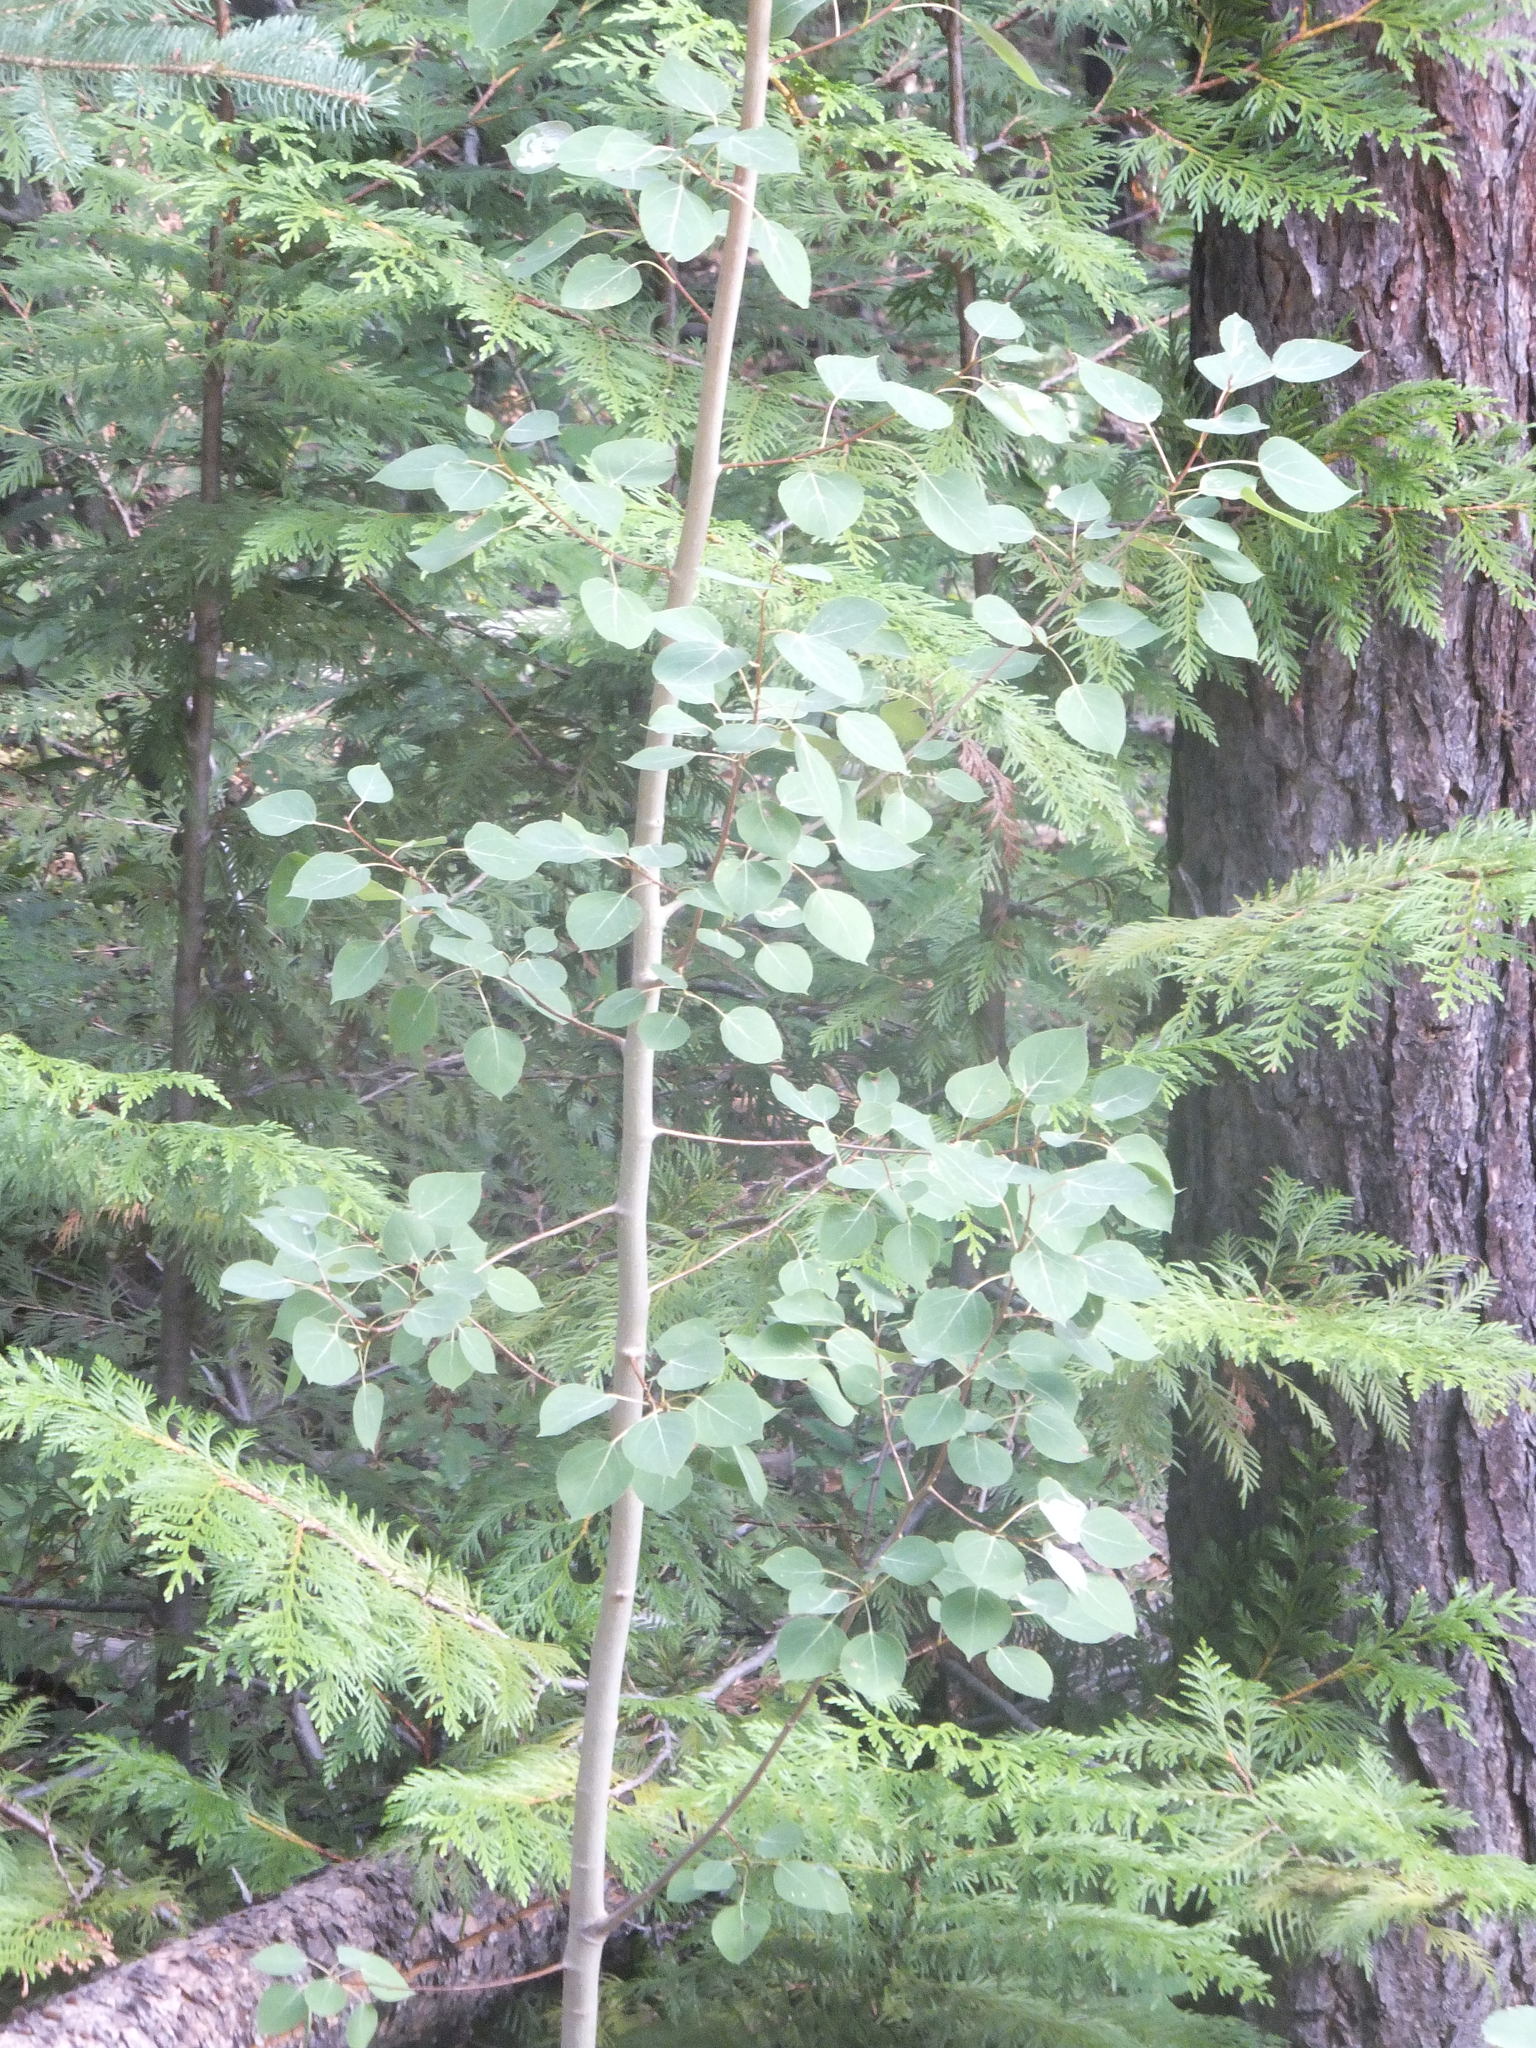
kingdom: Plantae
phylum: Tracheophyta
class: Magnoliopsida
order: Malpighiales
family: Salicaceae
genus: Populus
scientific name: Populus tremuloides
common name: Quaking aspen
